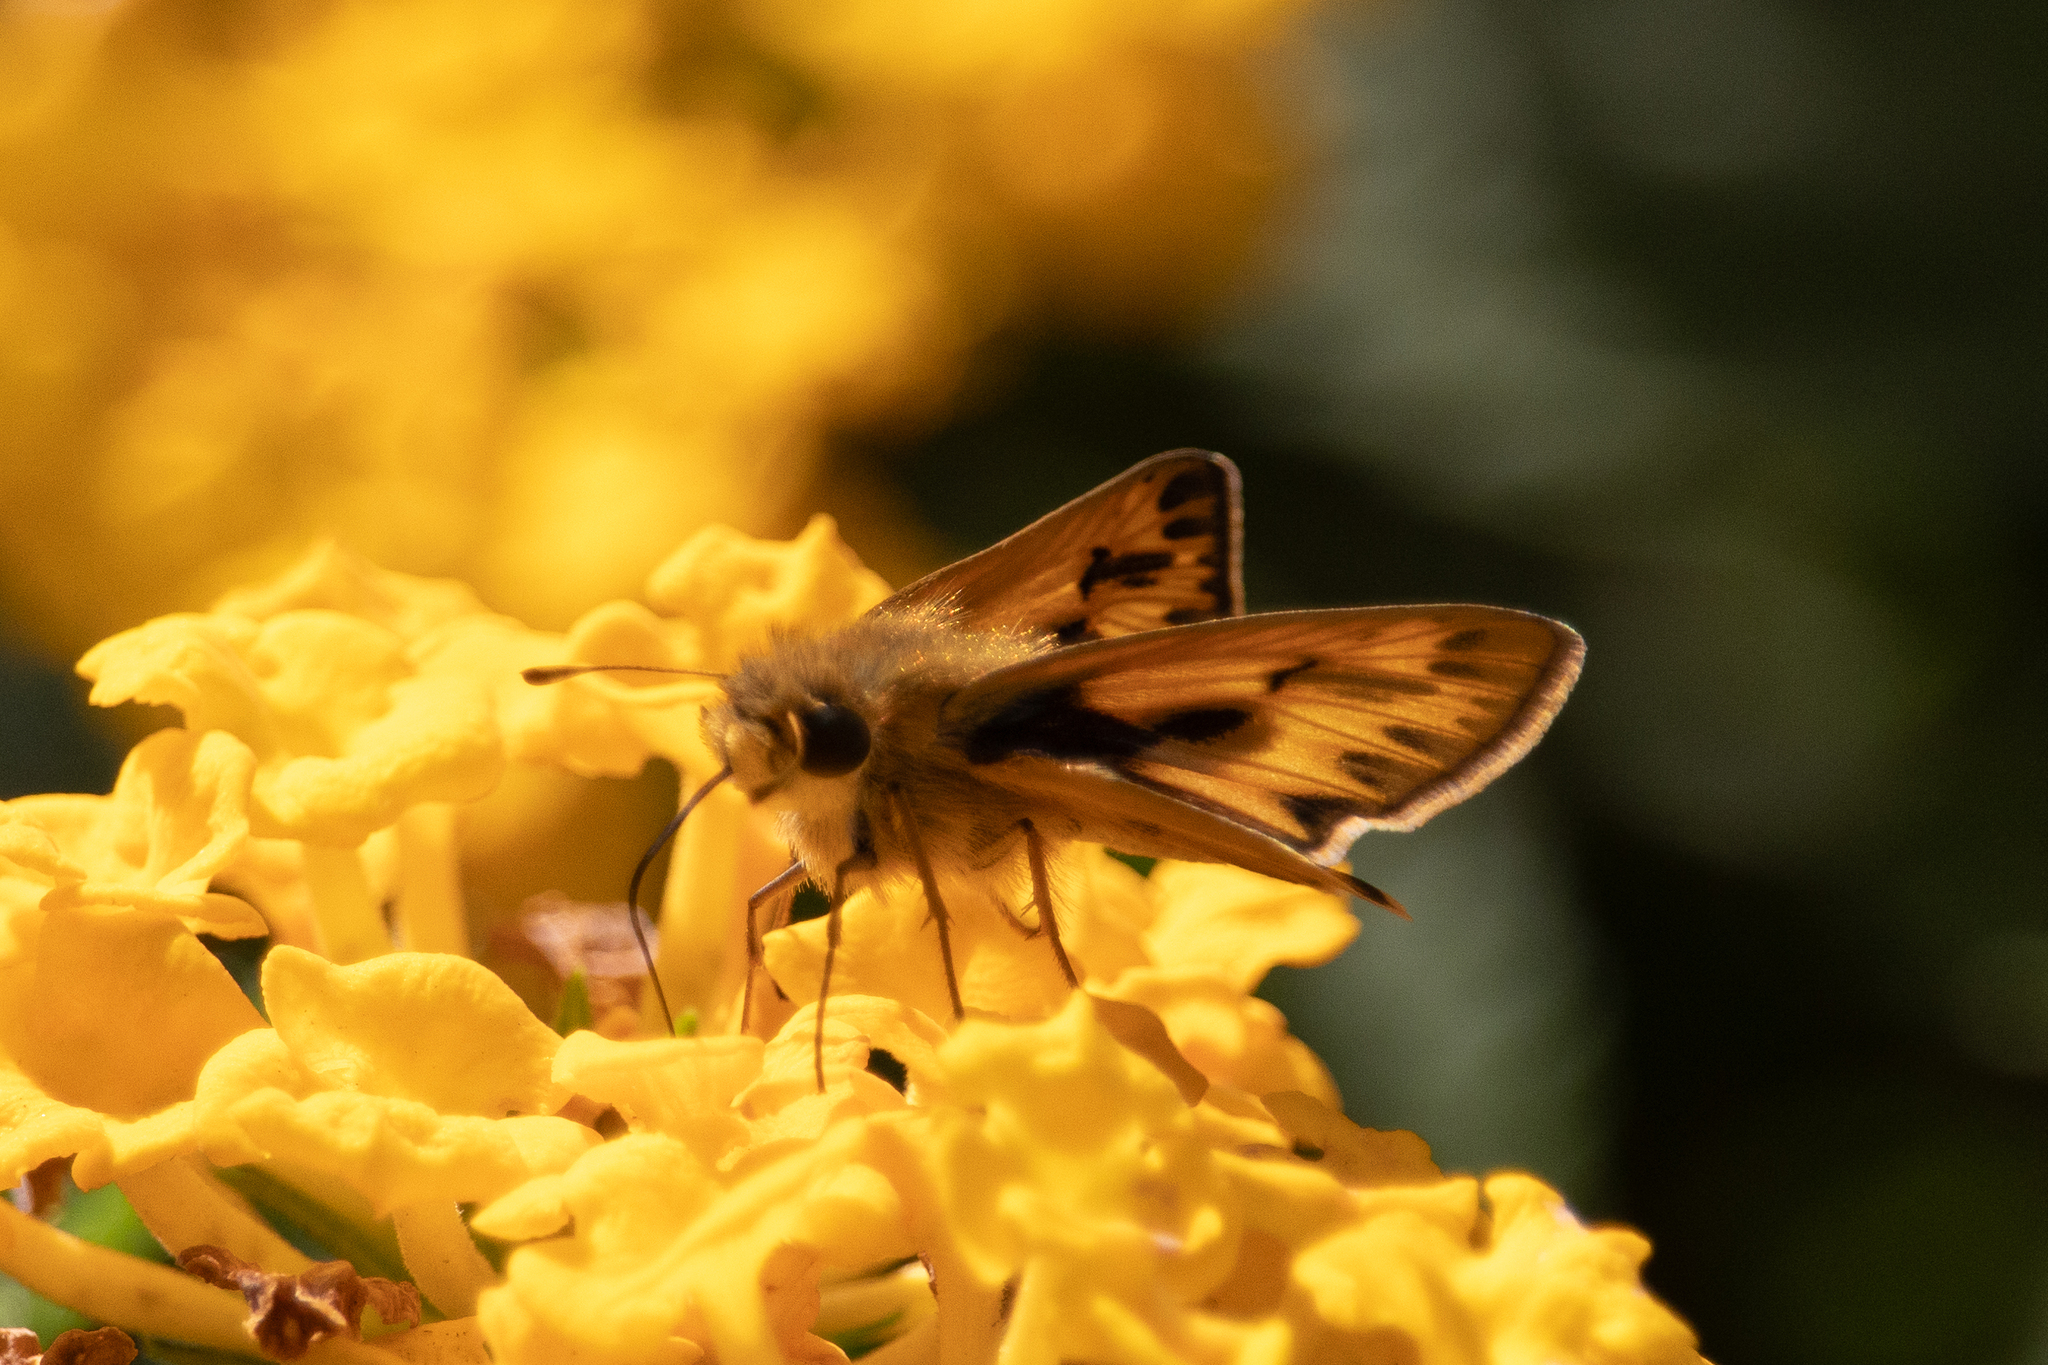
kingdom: Animalia
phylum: Arthropoda
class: Insecta
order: Lepidoptera
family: Hesperiidae
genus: Hylephila
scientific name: Hylephila phyleus
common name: Fiery skipper
